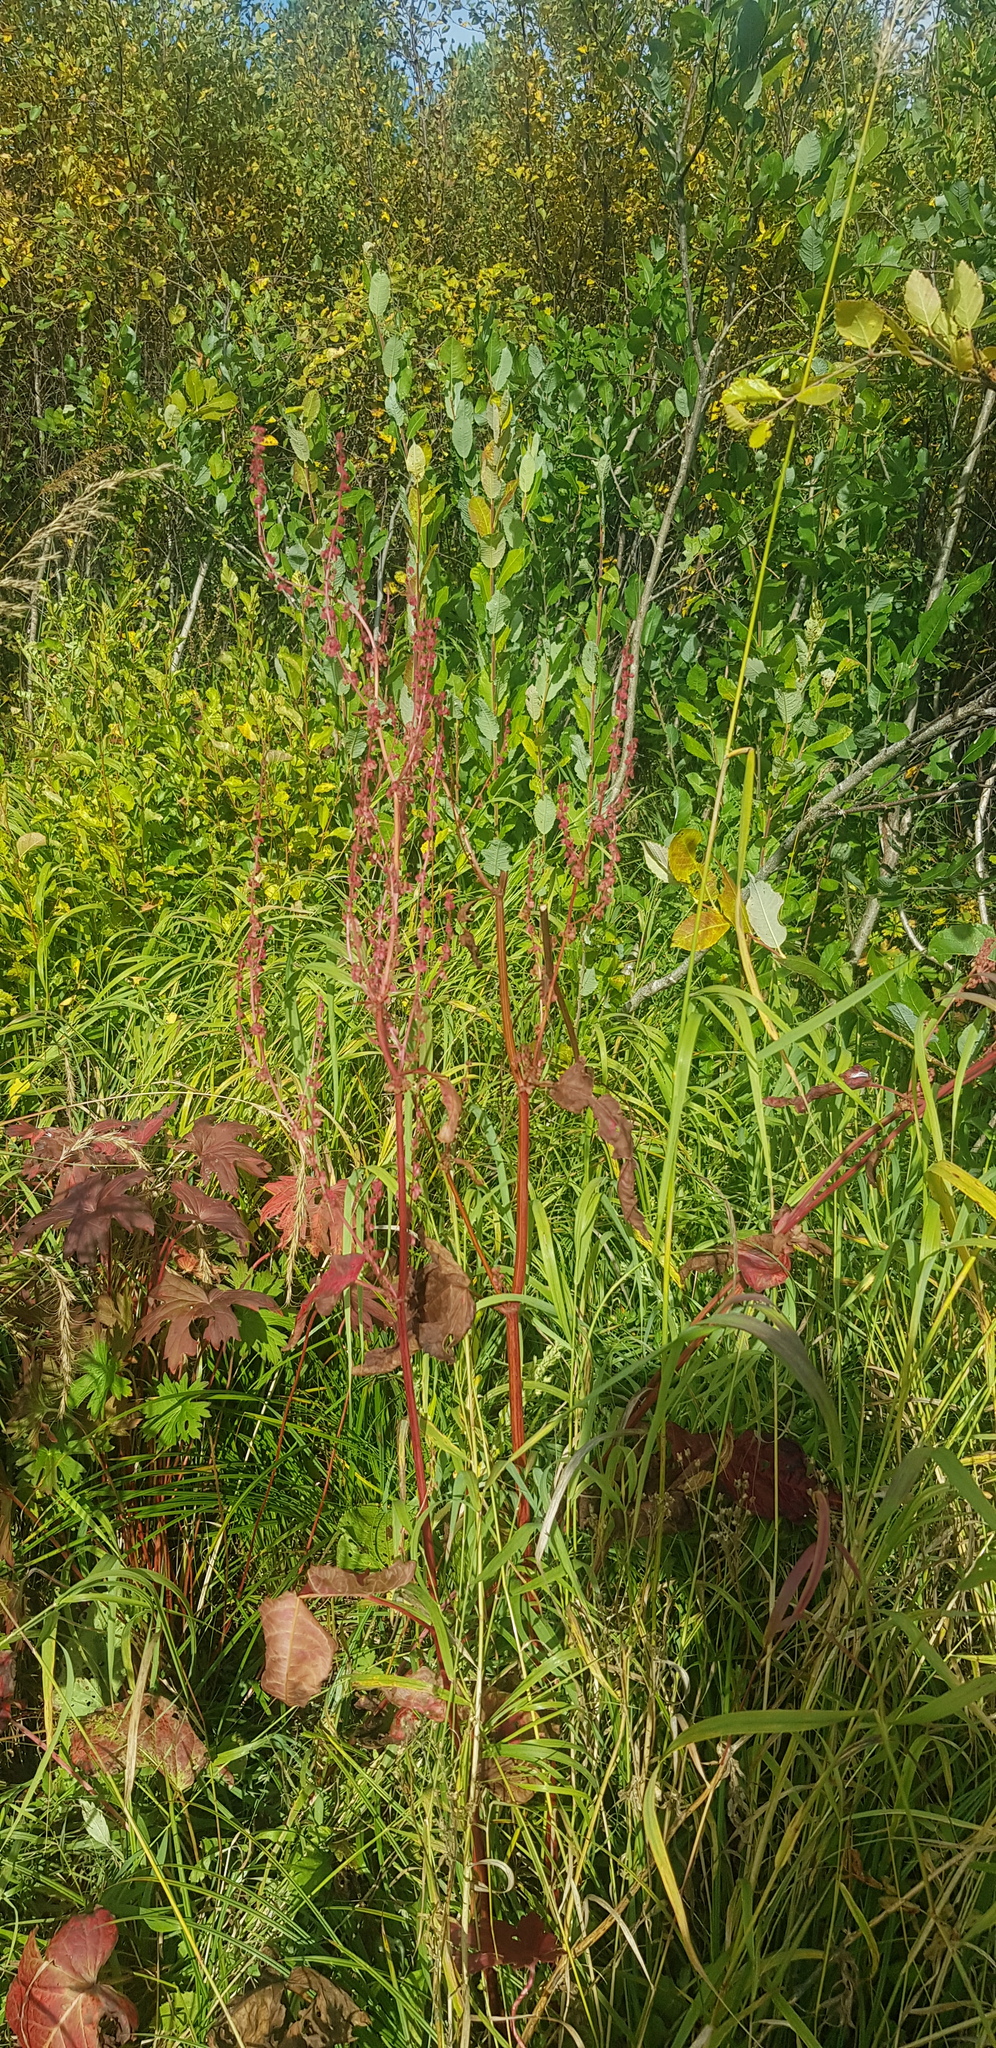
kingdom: Plantae
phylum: Tracheophyta
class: Magnoliopsida
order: Caryophyllales
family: Polygonaceae
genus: Rumex
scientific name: Rumex acetosa
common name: Garden sorrel
